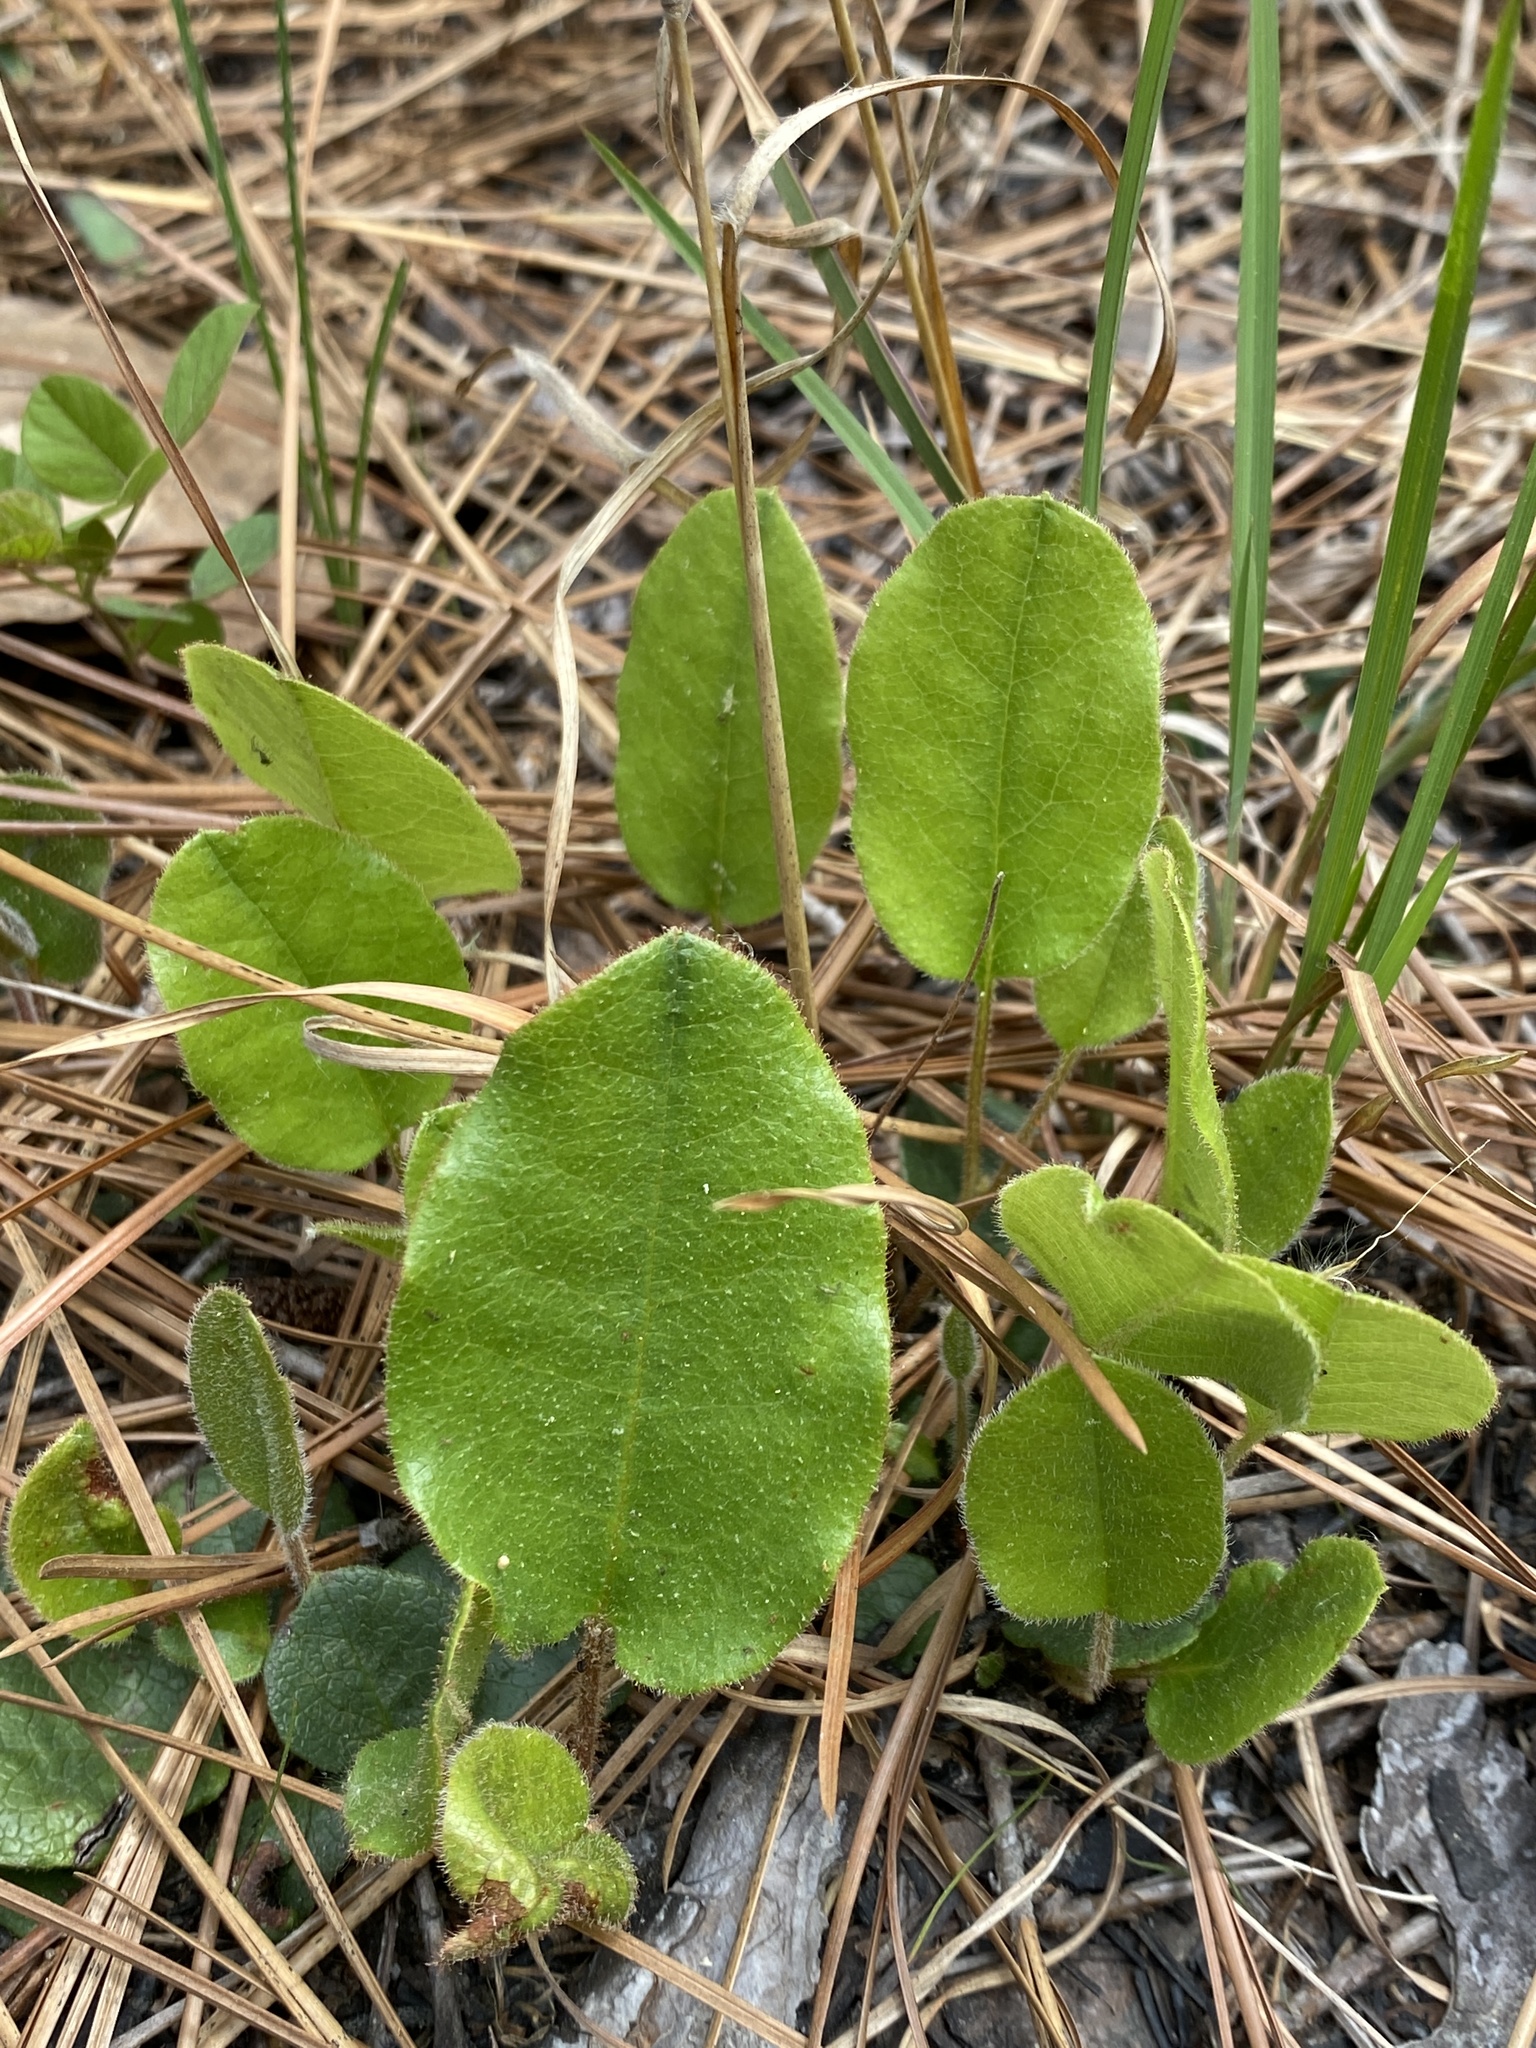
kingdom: Plantae
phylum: Tracheophyta
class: Magnoliopsida
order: Ericales
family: Ericaceae
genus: Epigaea
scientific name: Epigaea repens
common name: Gravelroot
